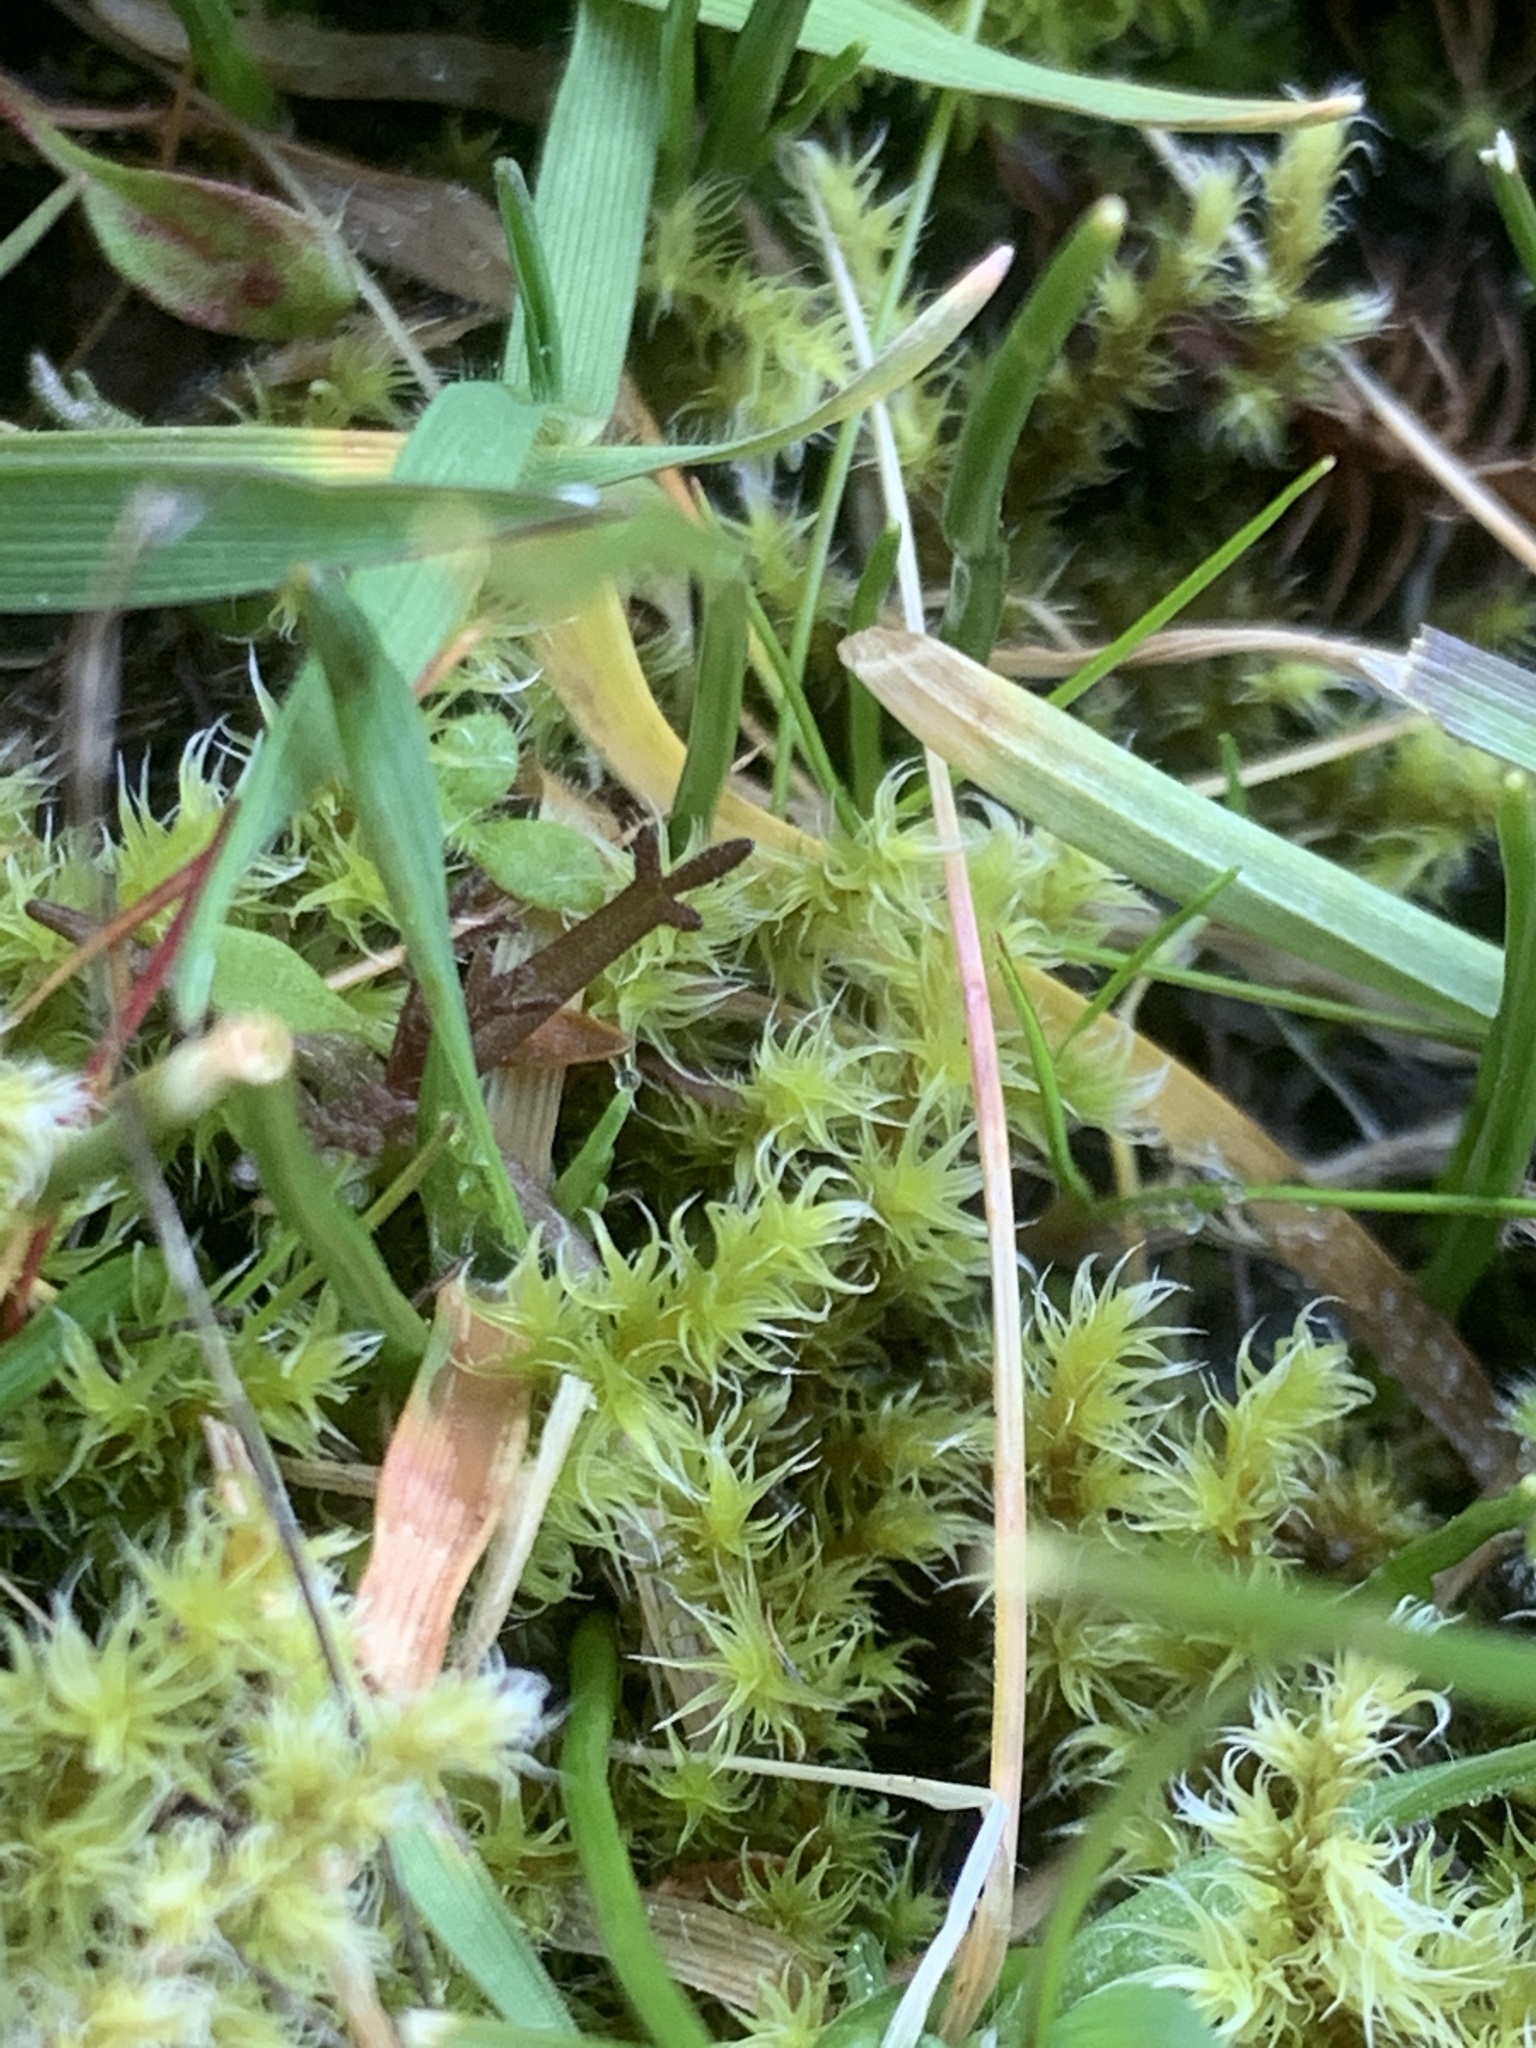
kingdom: Plantae
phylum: Bryophyta
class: Bryopsida
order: Grimmiales
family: Grimmiaceae
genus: Niphotrichum
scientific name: Niphotrichum elongatum
